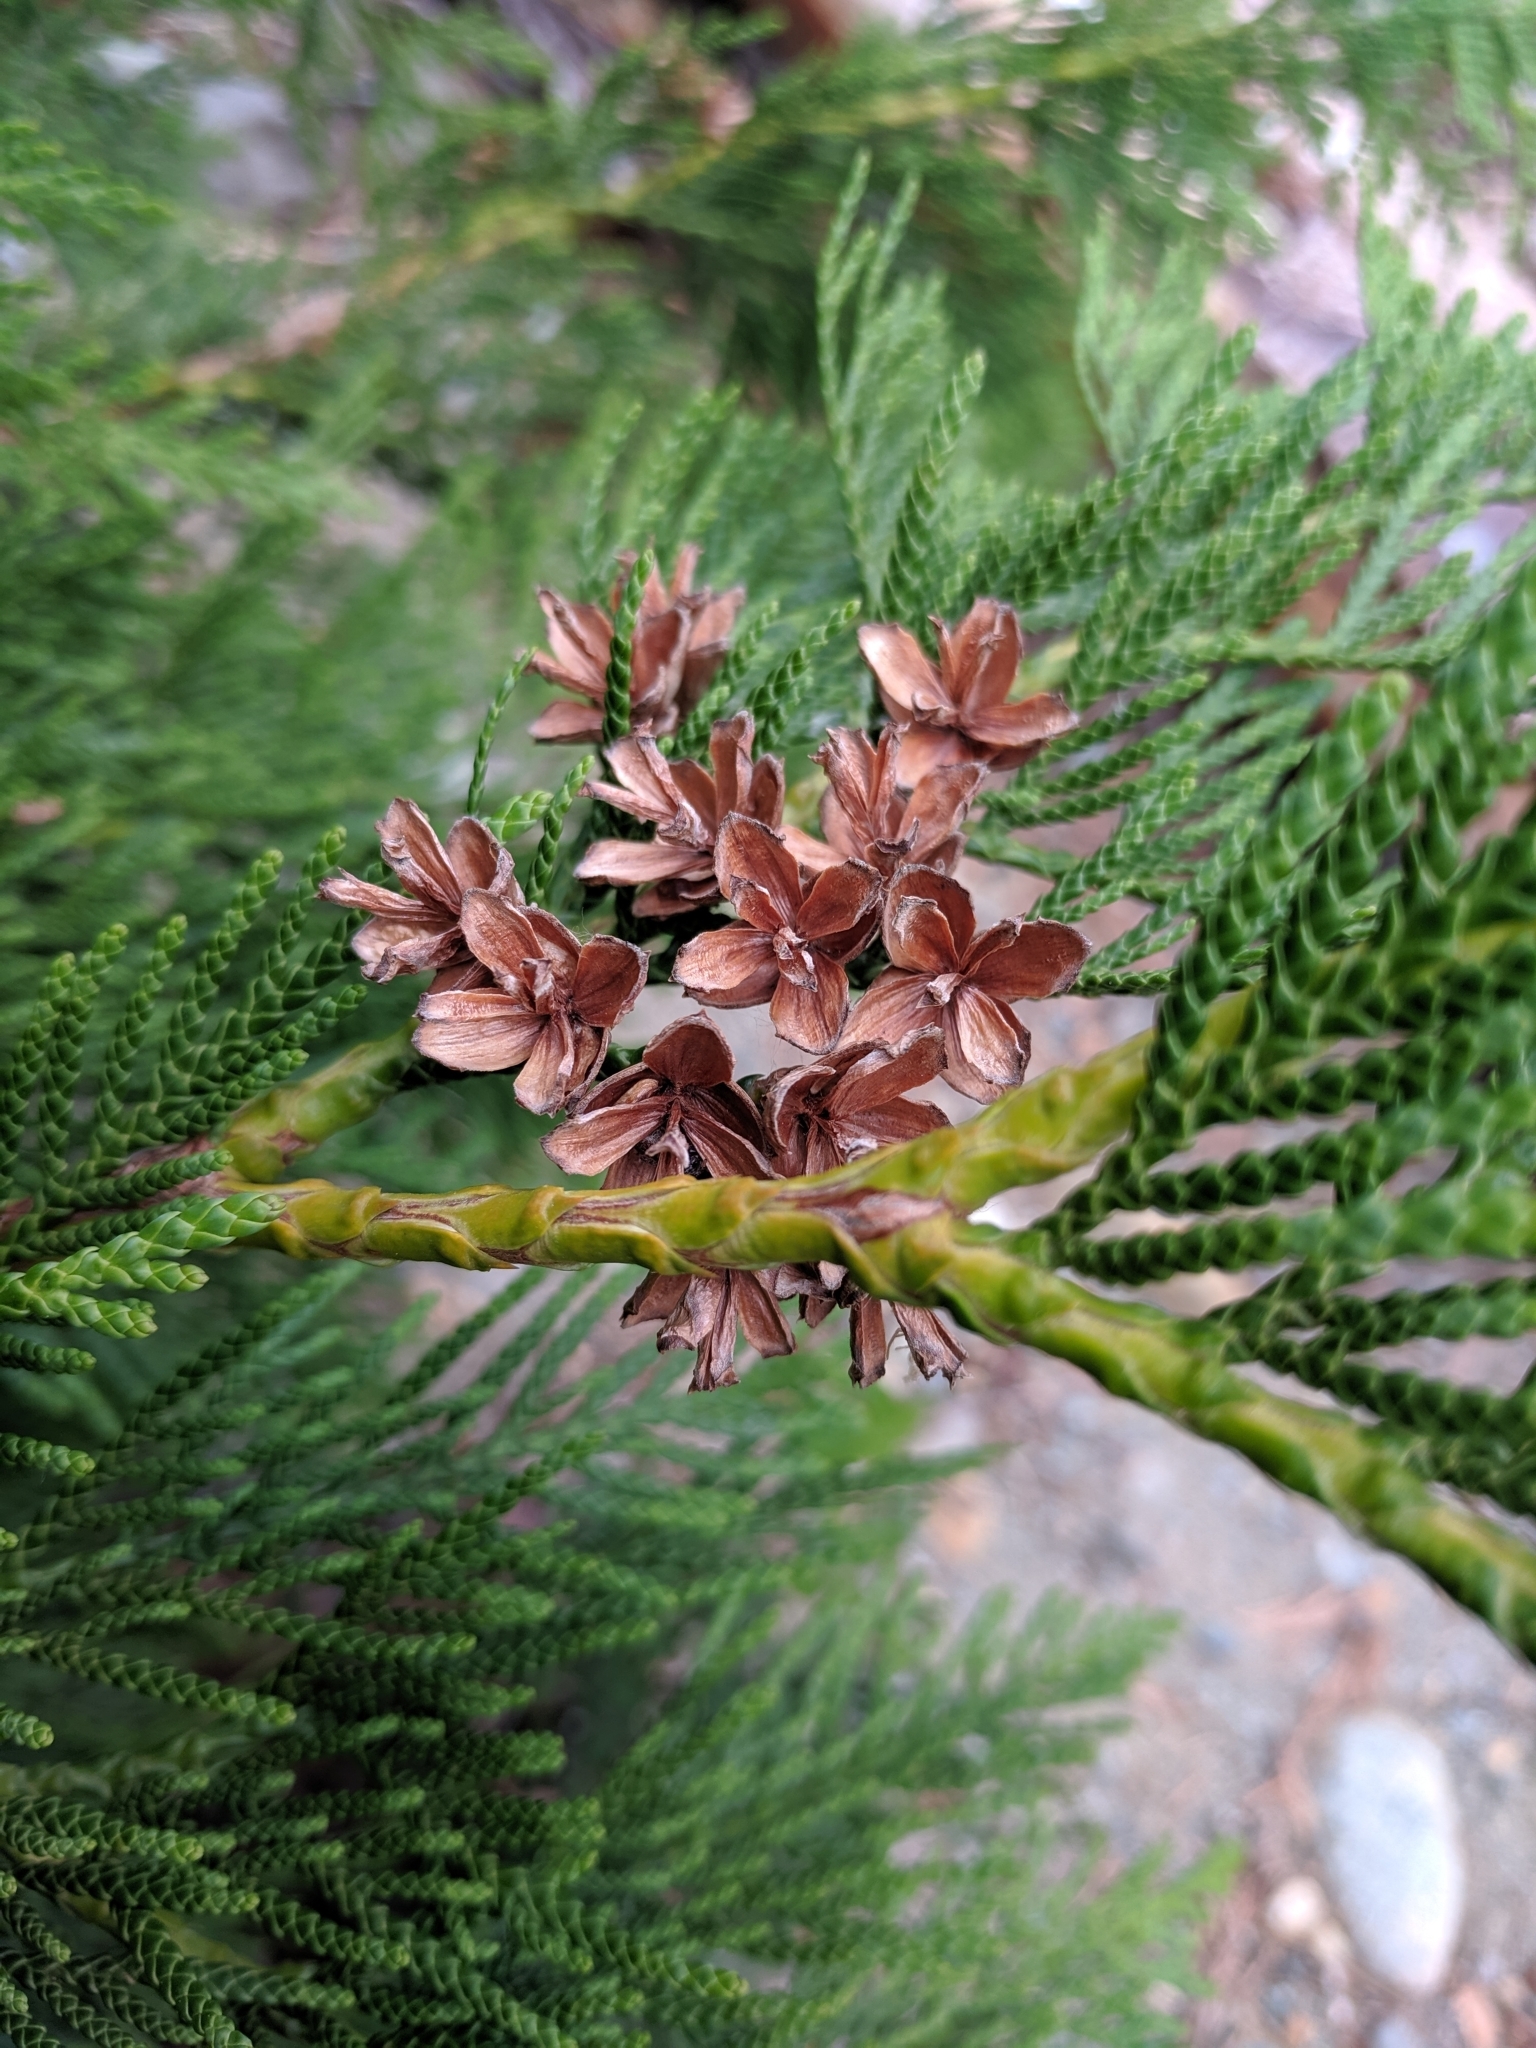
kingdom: Plantae
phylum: Tracheophyta
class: Pinopsida
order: Pinales
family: Cupressaceae
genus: Thuja
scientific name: Thuja plicata
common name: Western red-cedar
